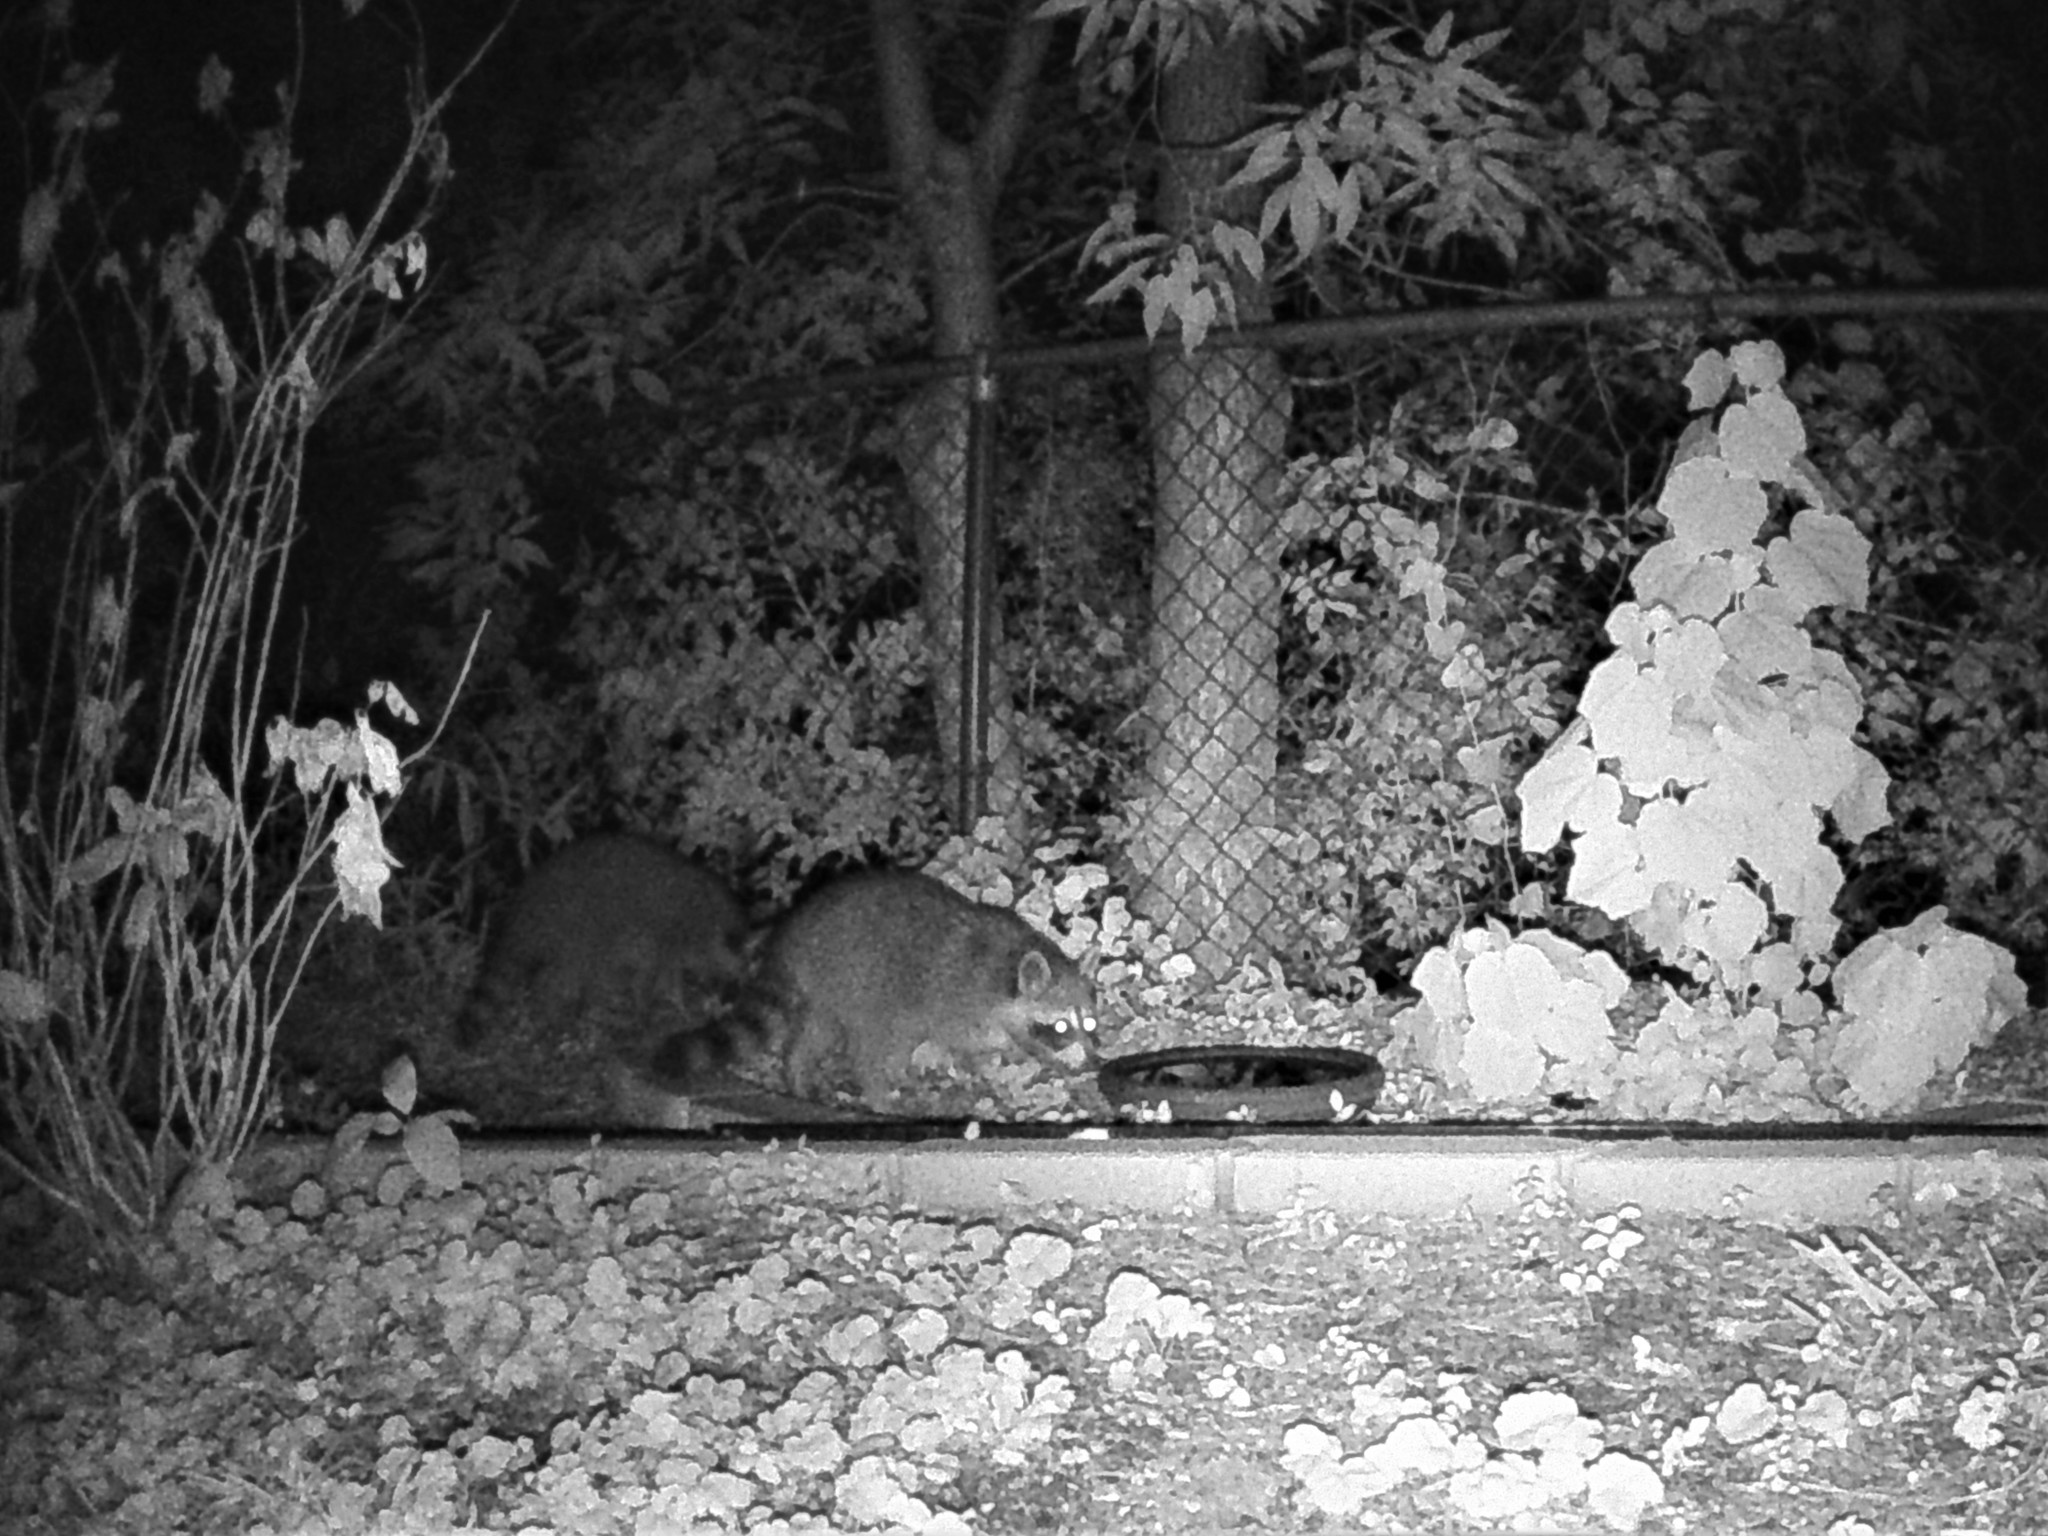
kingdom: Animalia
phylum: Chordata
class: Mammalia
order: Carnivora
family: Procyonidae
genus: Procyon
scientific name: Procyon lotor
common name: Raccoon
